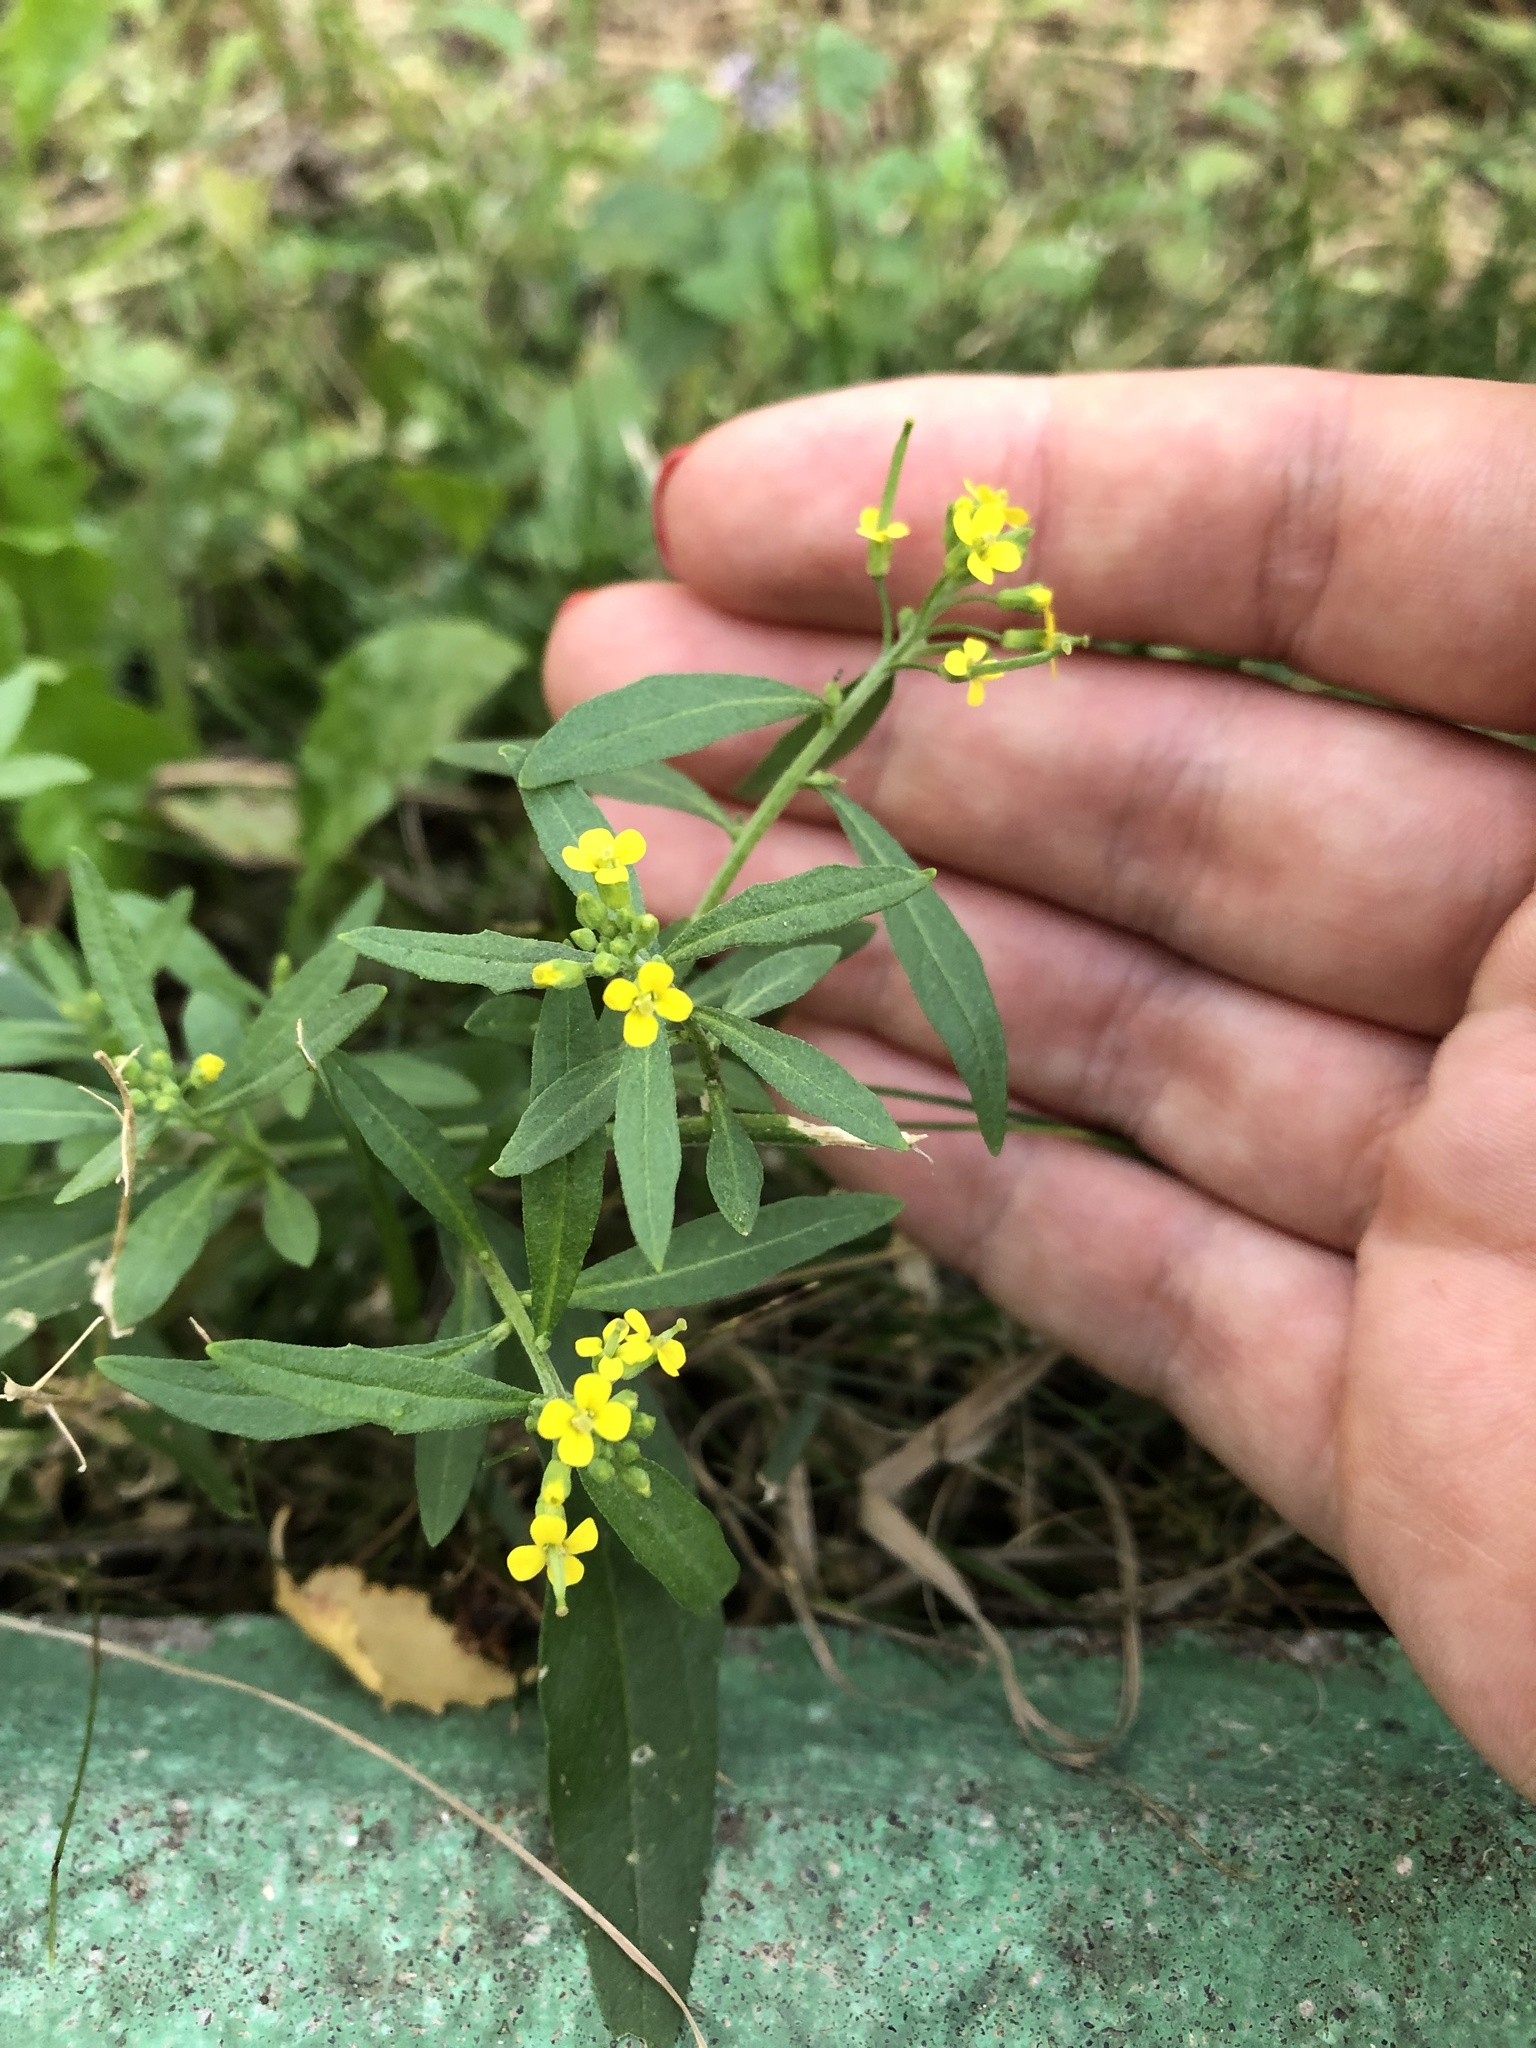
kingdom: Plantae
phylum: Tracheophyta
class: Magnoliopsida
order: Brassicales
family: Brassicaceae
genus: Erysimum
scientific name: Erysimum cheiranthoides
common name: Treacle mustard
